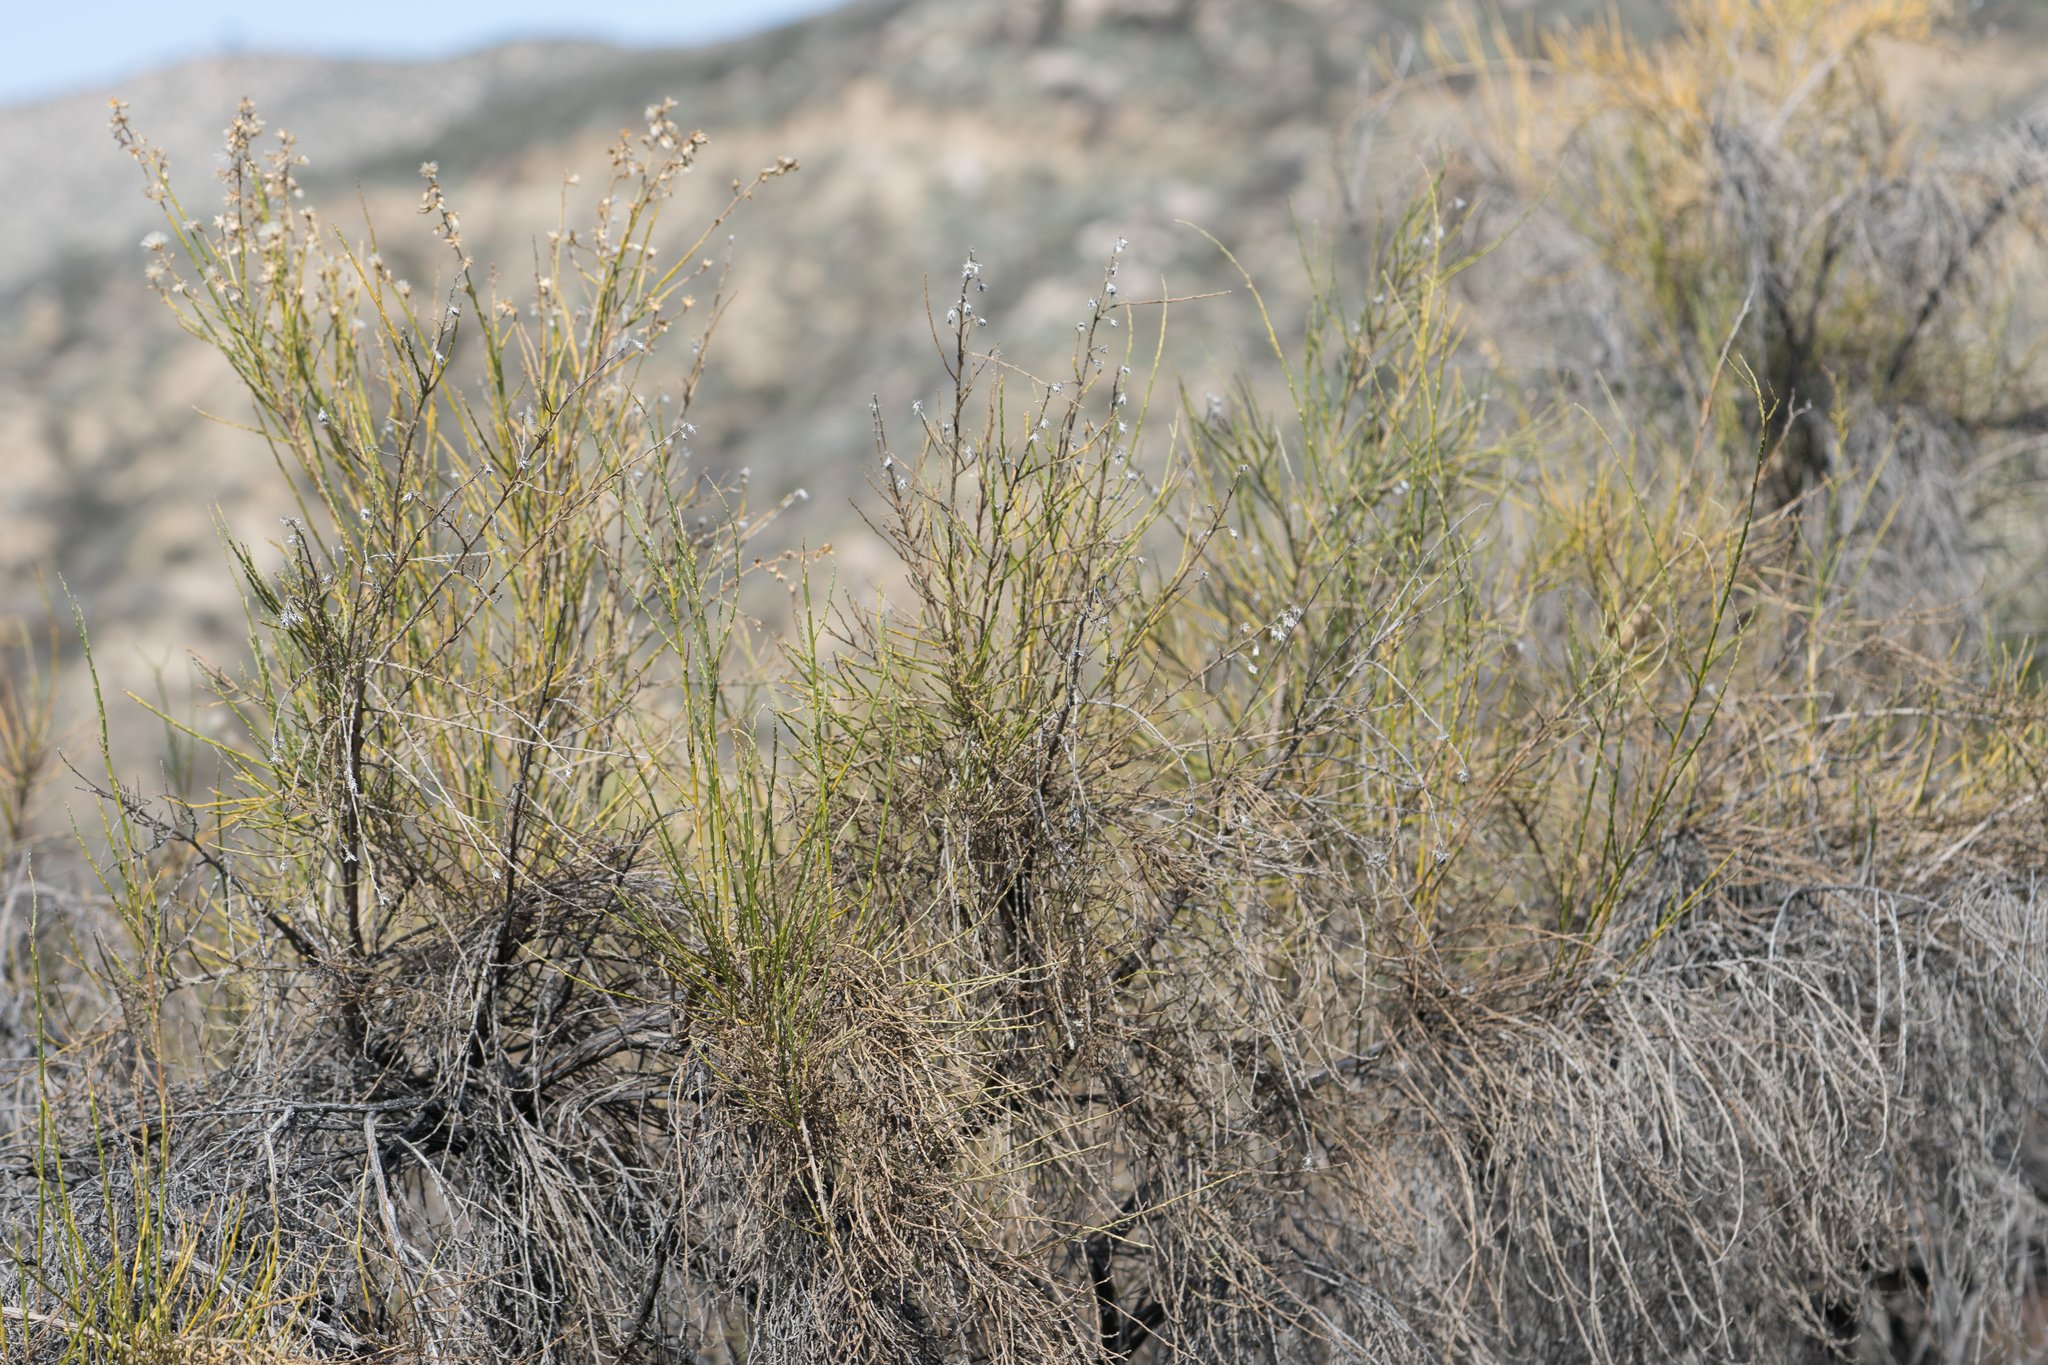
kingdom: Plantae
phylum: Tracheophyta
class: Magnoliopsida
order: Asterales
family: Asteraceae
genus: Lepidospartum
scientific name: Lepidospartum squamatum
